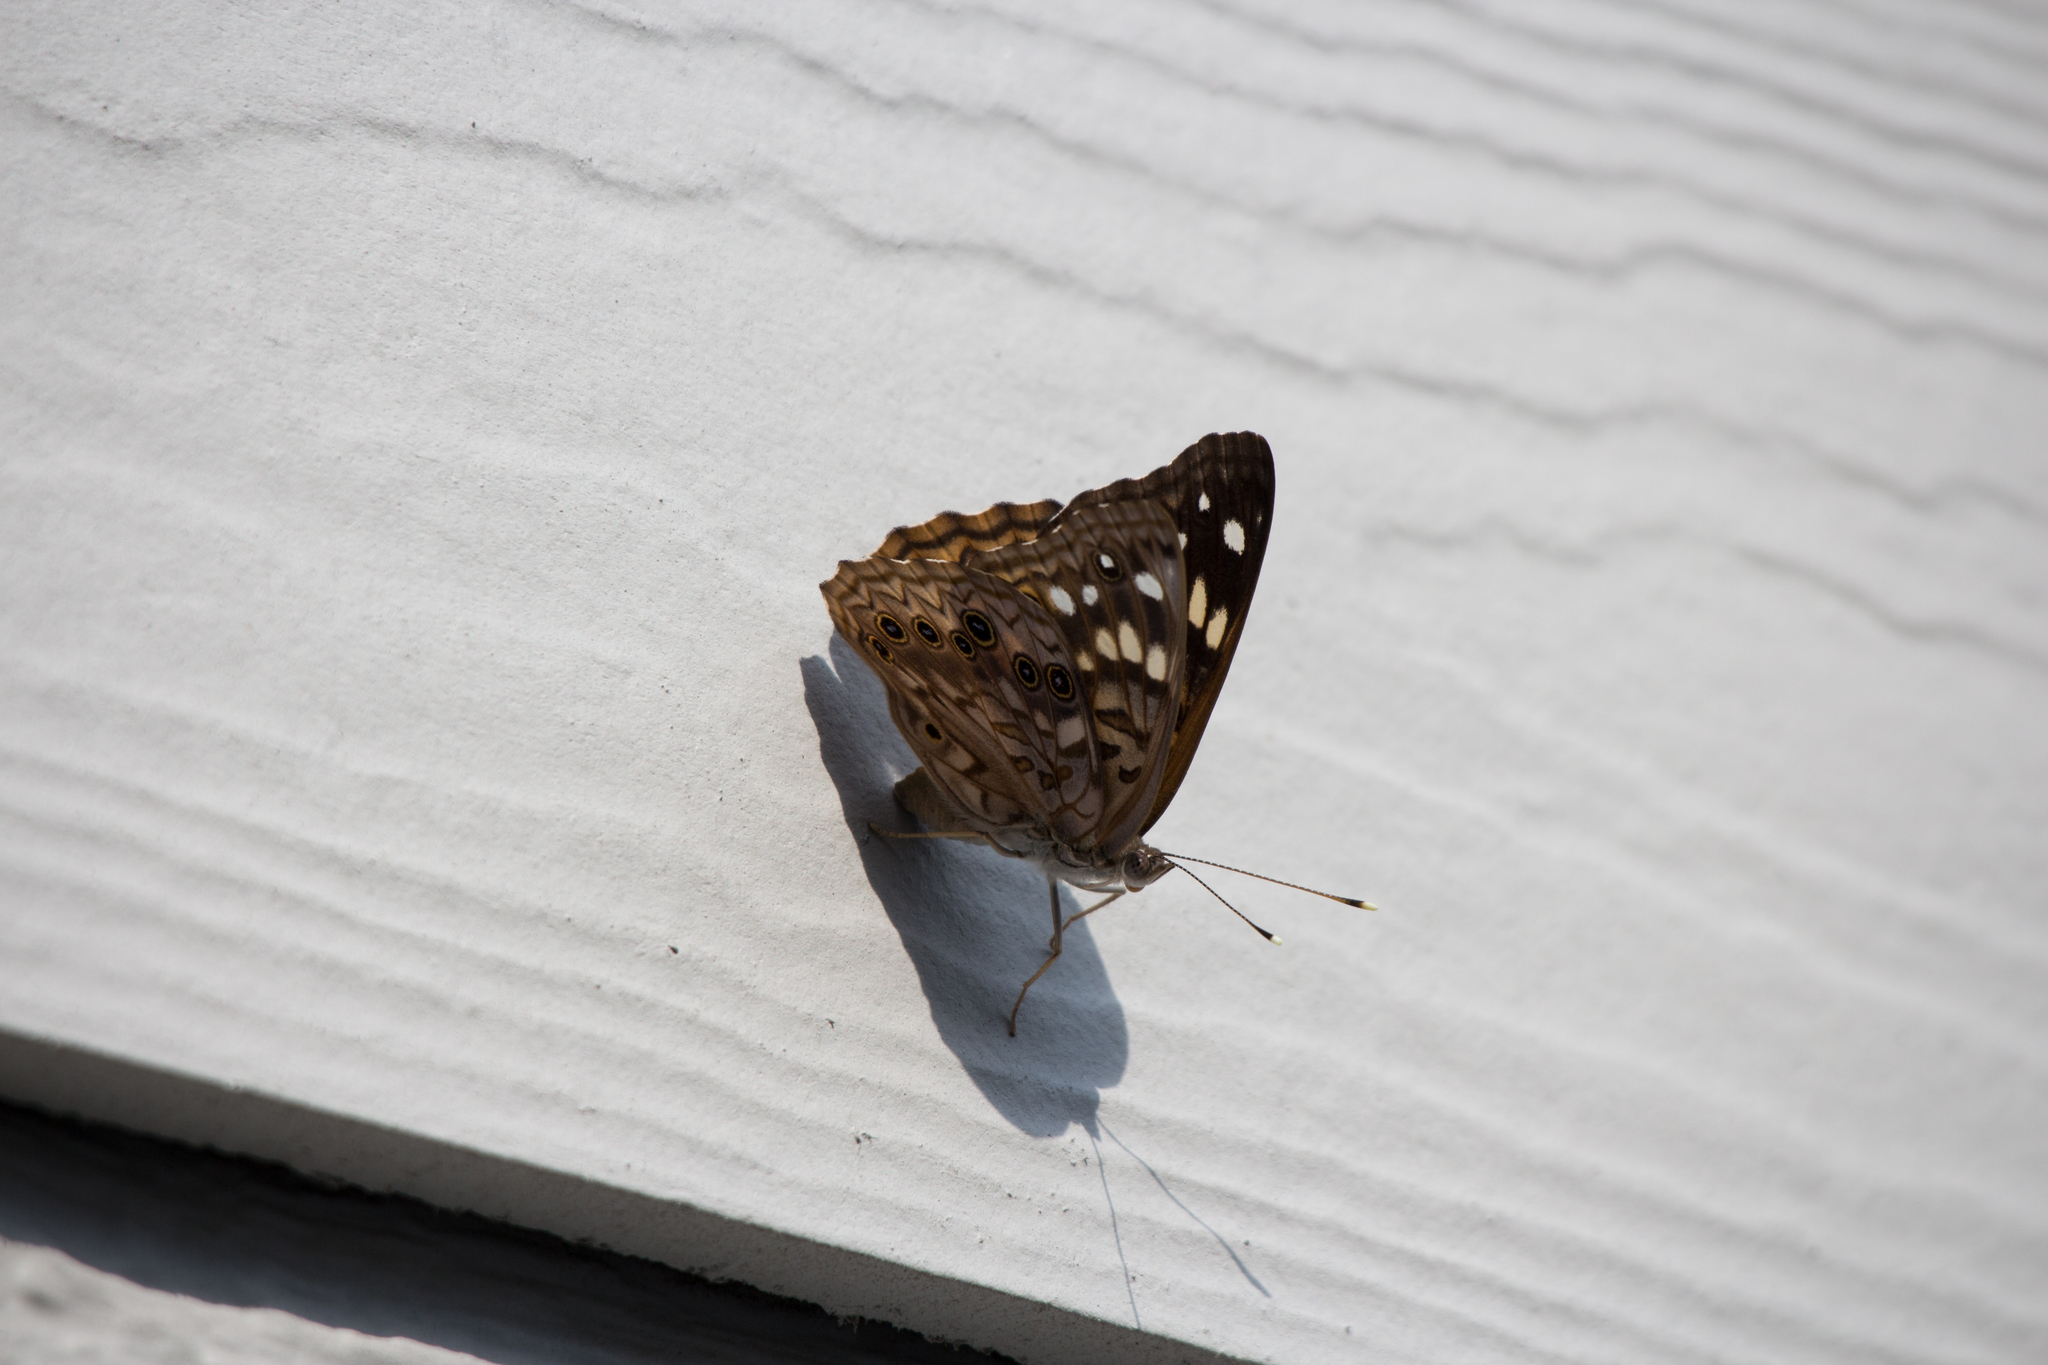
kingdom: Animalia
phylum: Arthropoda
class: Insecta
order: Lepidoptera
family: Nymphalidae
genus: Asterocampa
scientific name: Asterocampa celtis
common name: Hackberry emperor
